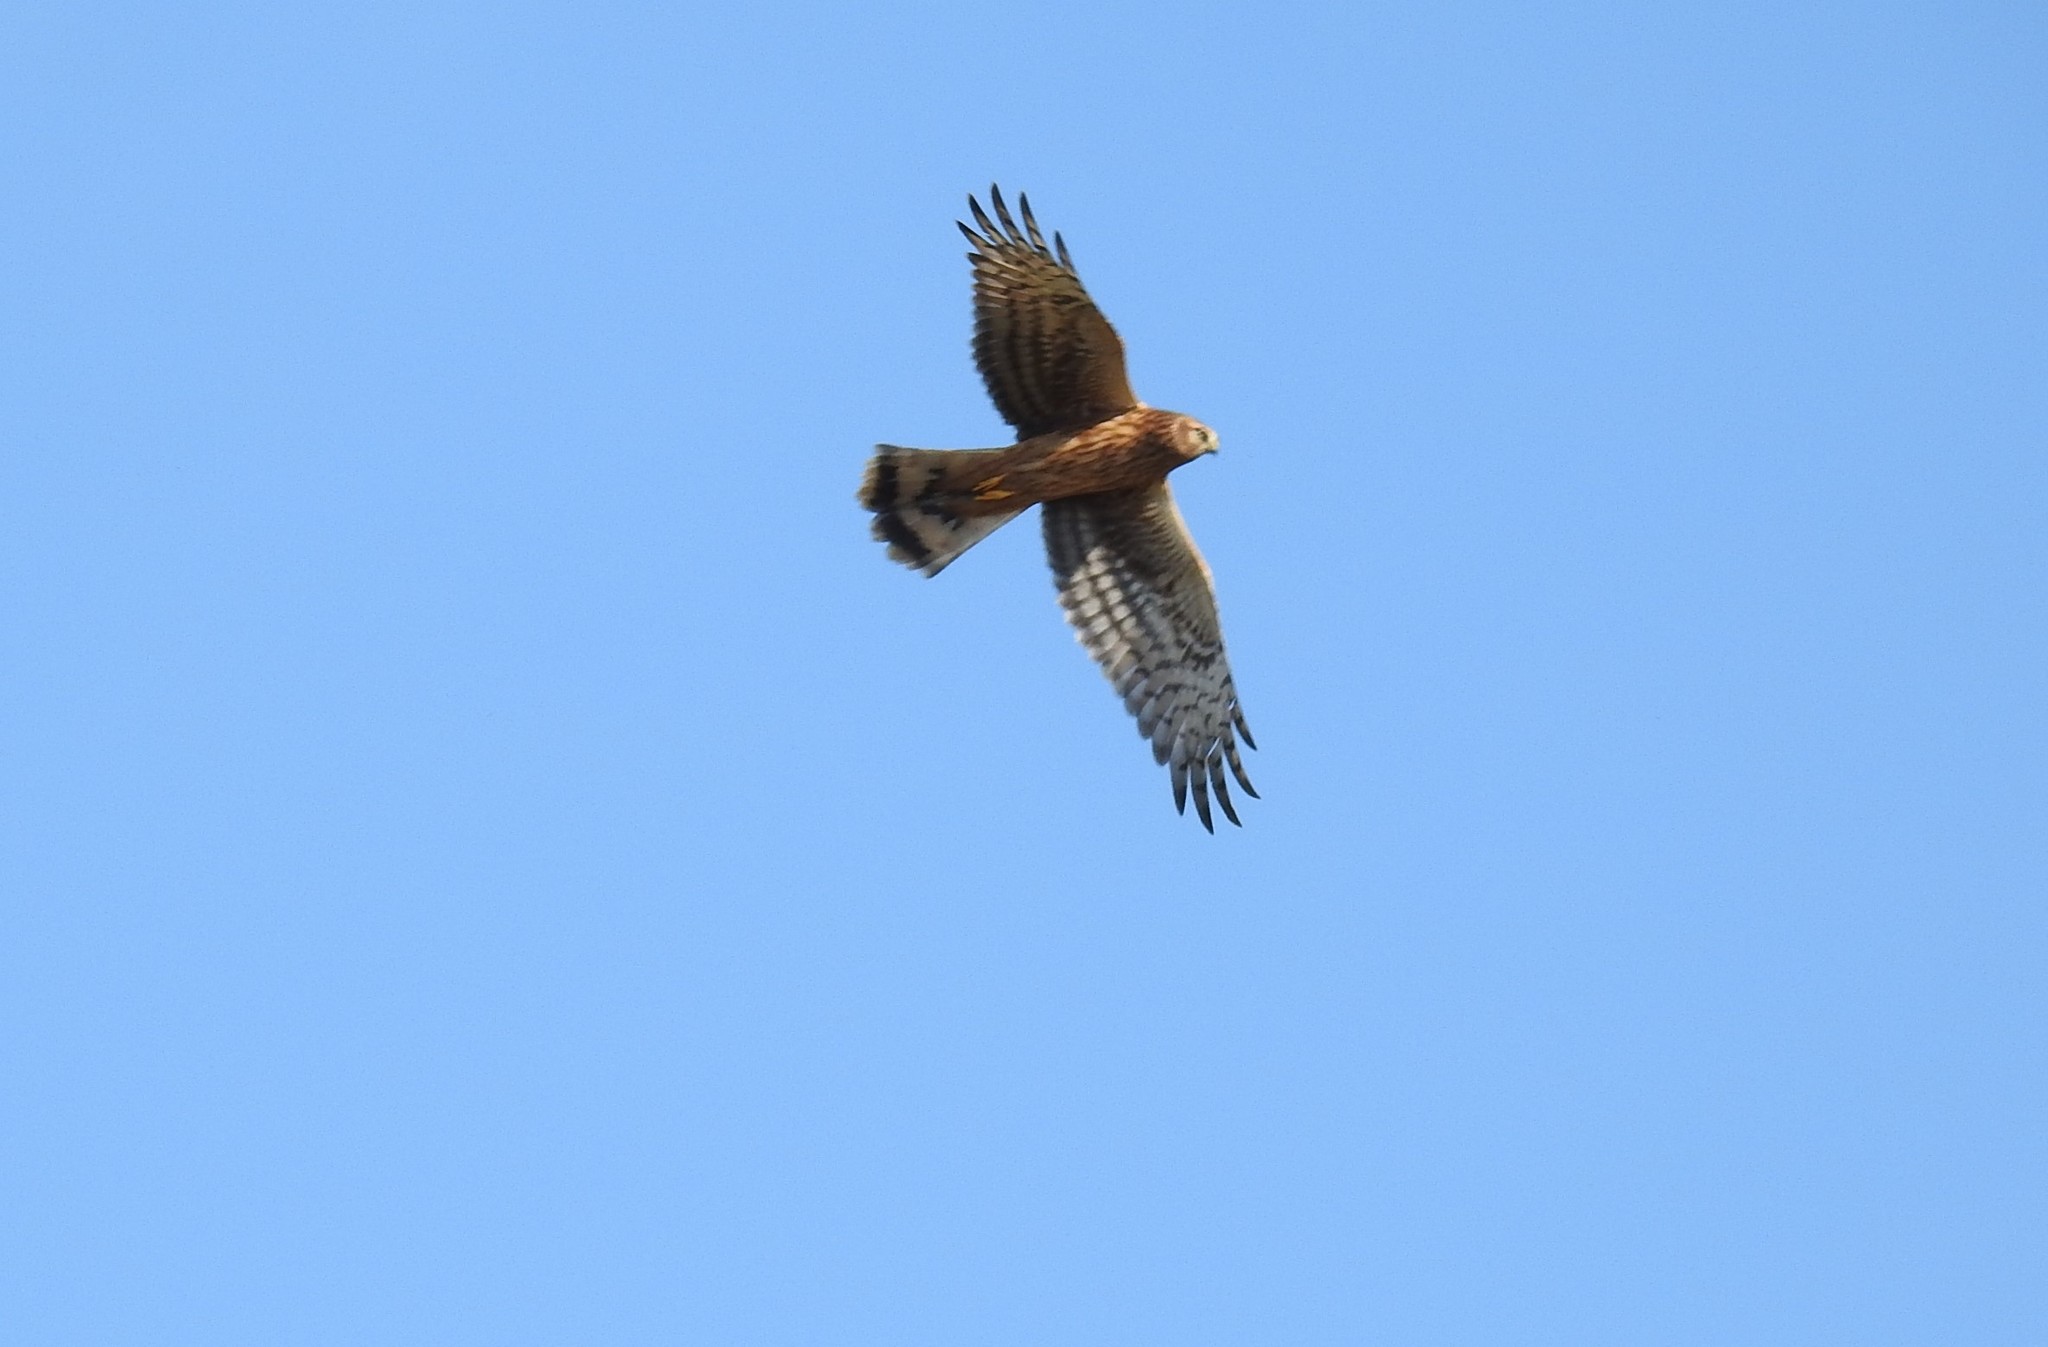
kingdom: Animalia
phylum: Chordata
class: Aves
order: Accipitriformes
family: Accipitridae
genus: Circus
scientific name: Circus cyaneus
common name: Hen harrier
